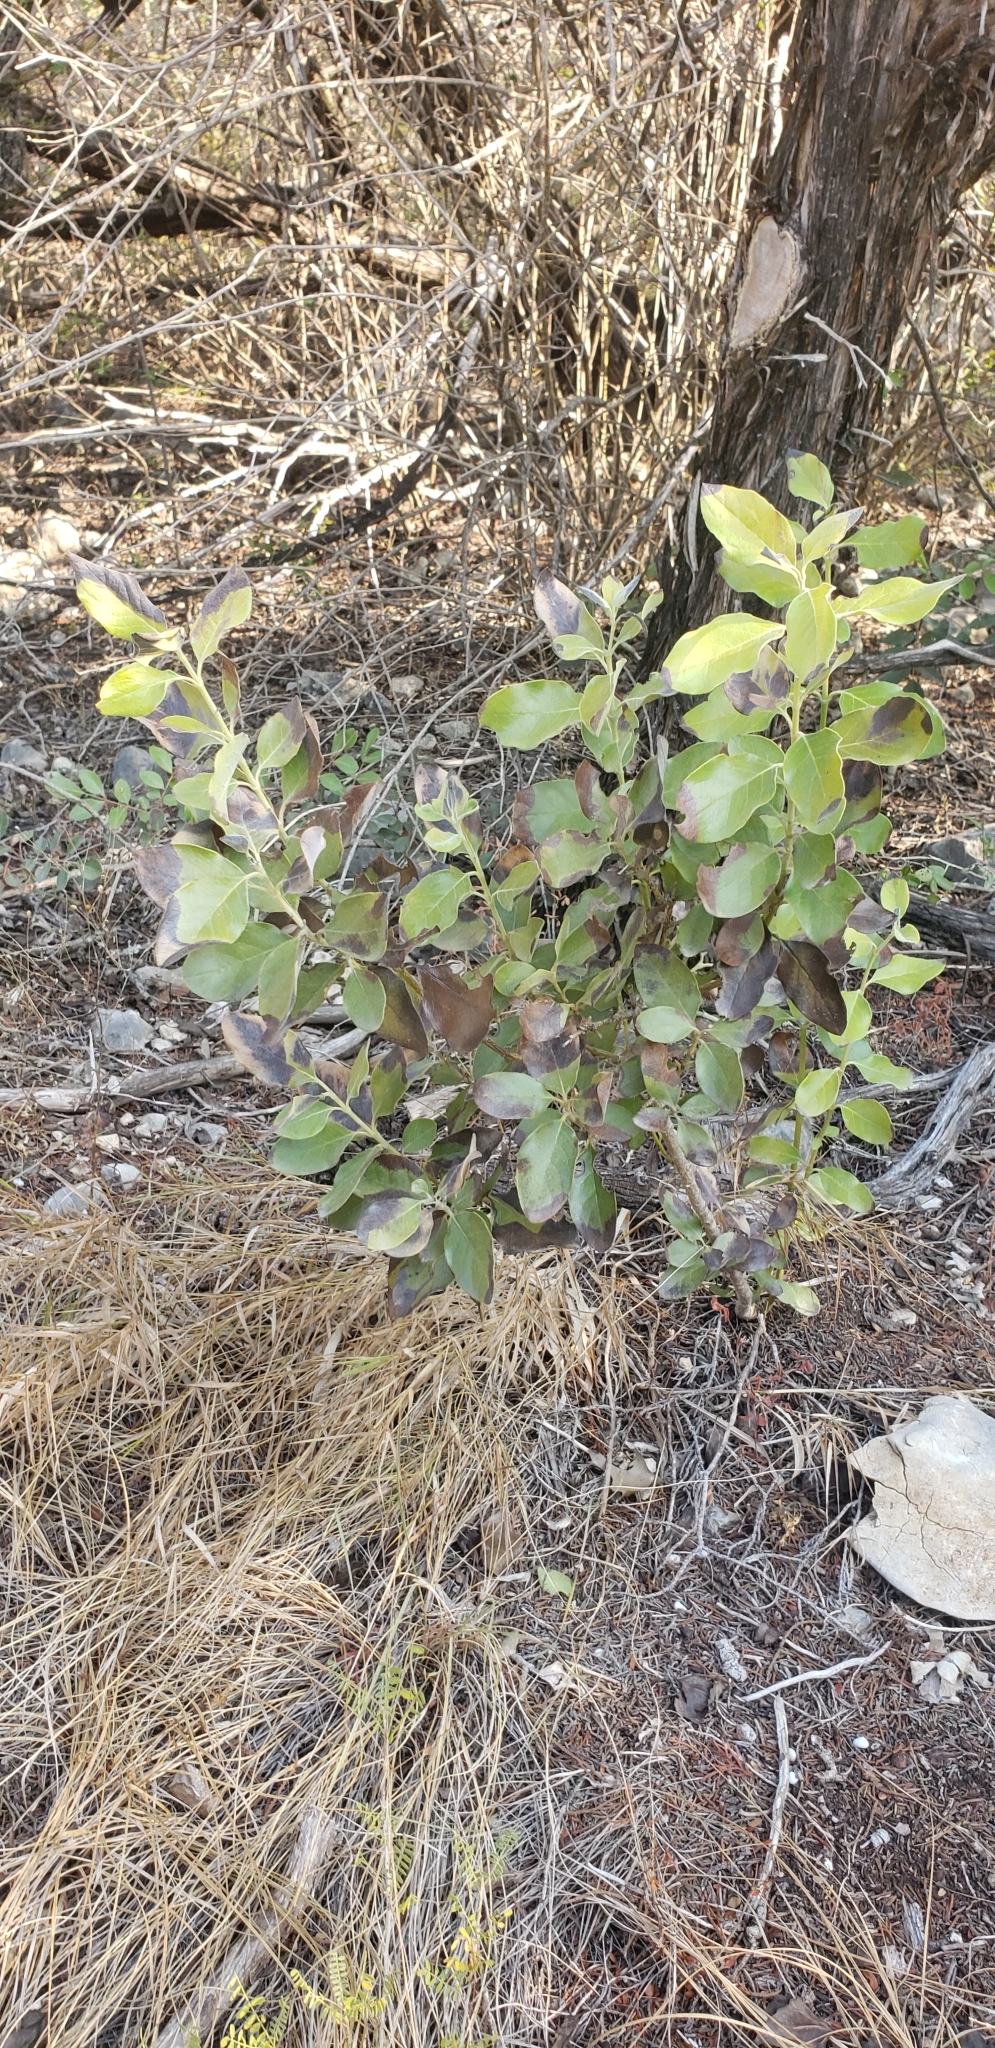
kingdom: Plantae
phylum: Tracheophyta
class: Magnoliopsida
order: Garryales
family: Garryaceae
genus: Garrya
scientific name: Garrya lindheimeri
